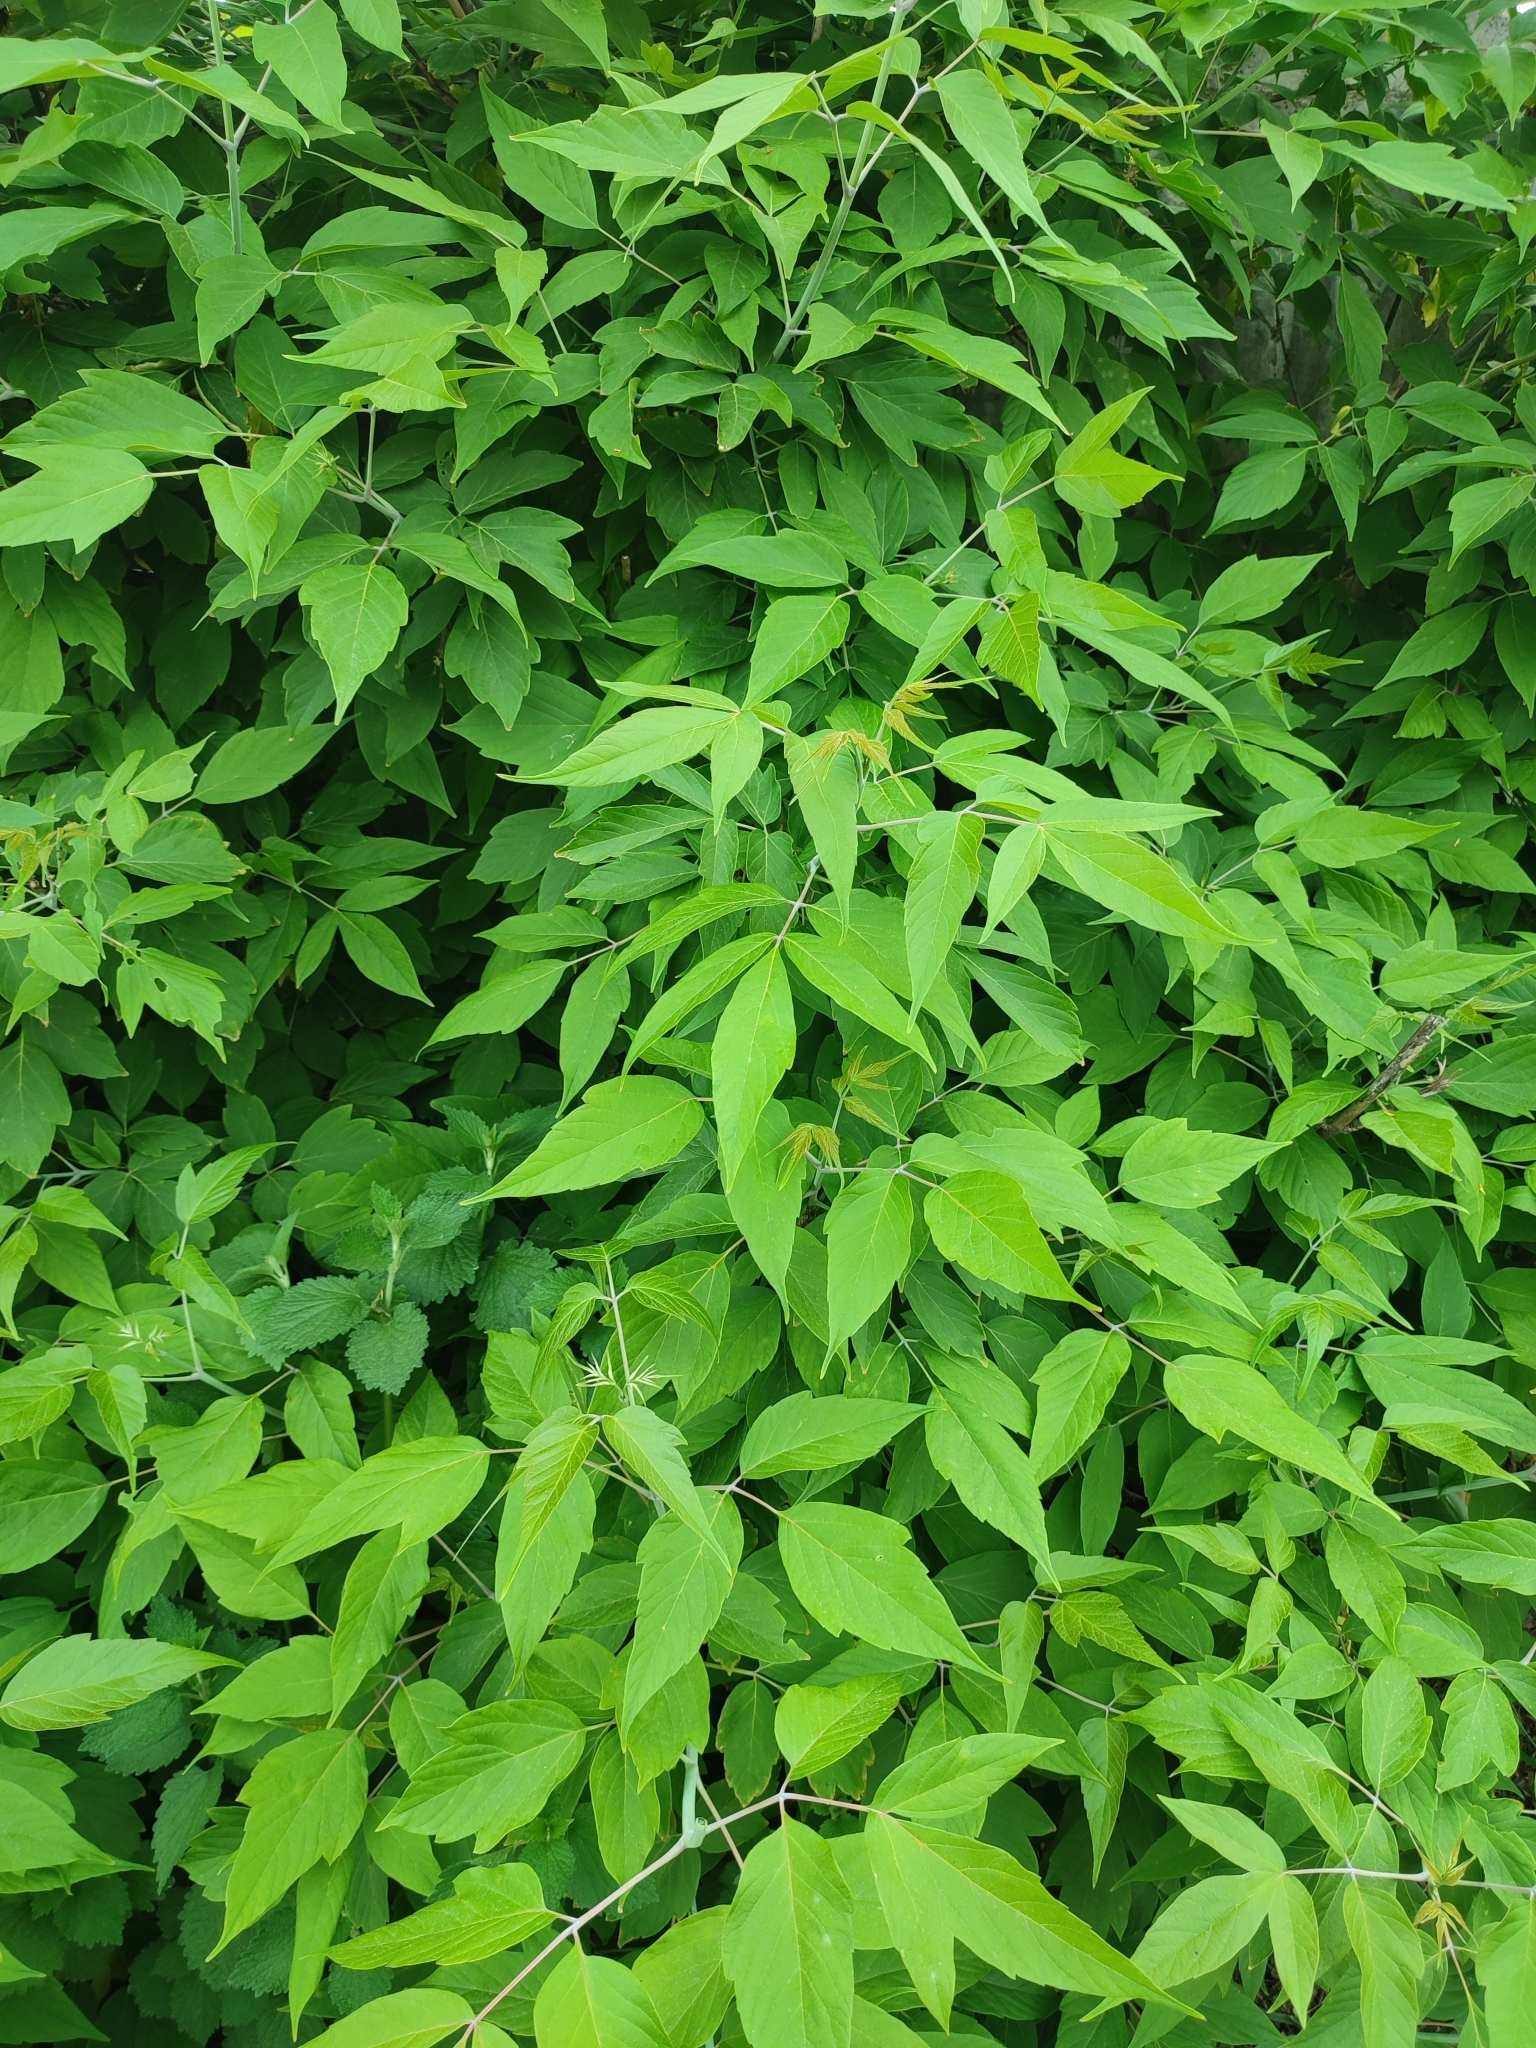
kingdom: Plantae
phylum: Tracheophyta
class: Magnoliopsida
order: Sapindales
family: Sapindaceae
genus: Acer
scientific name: Acer negundo
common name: Ashleaf maple
